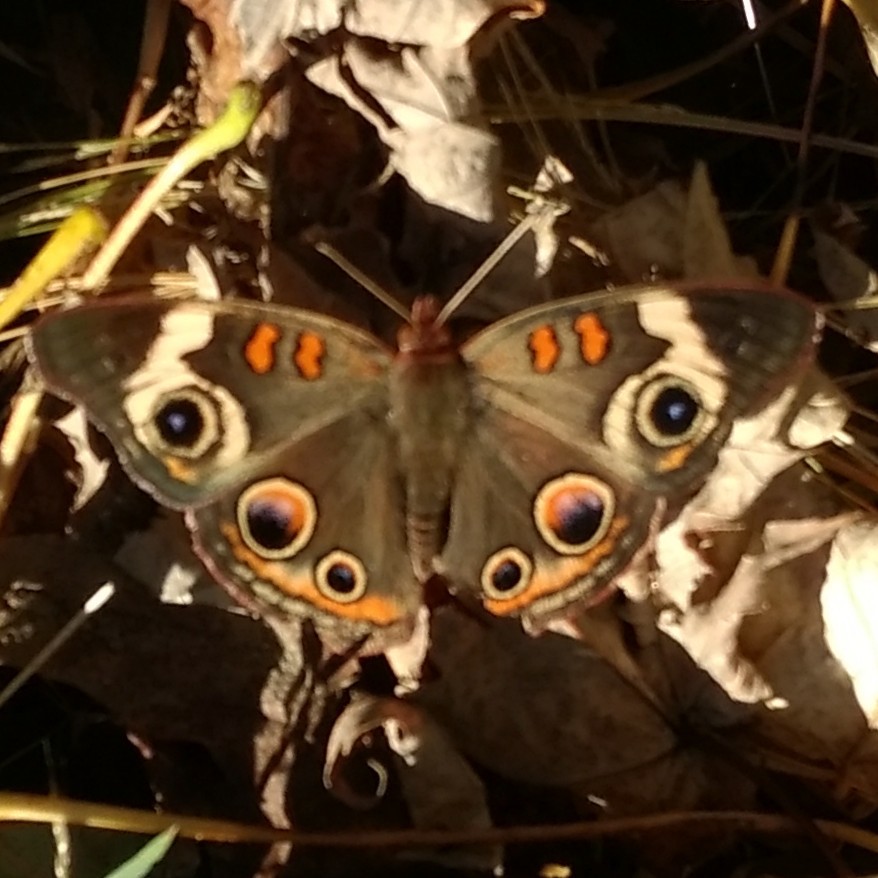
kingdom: Animalia
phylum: Arthropoda
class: Insecta
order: Lepidoptera
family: Nymphalidae
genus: Junonia
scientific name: Junonia coenia
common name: Common buckeye
